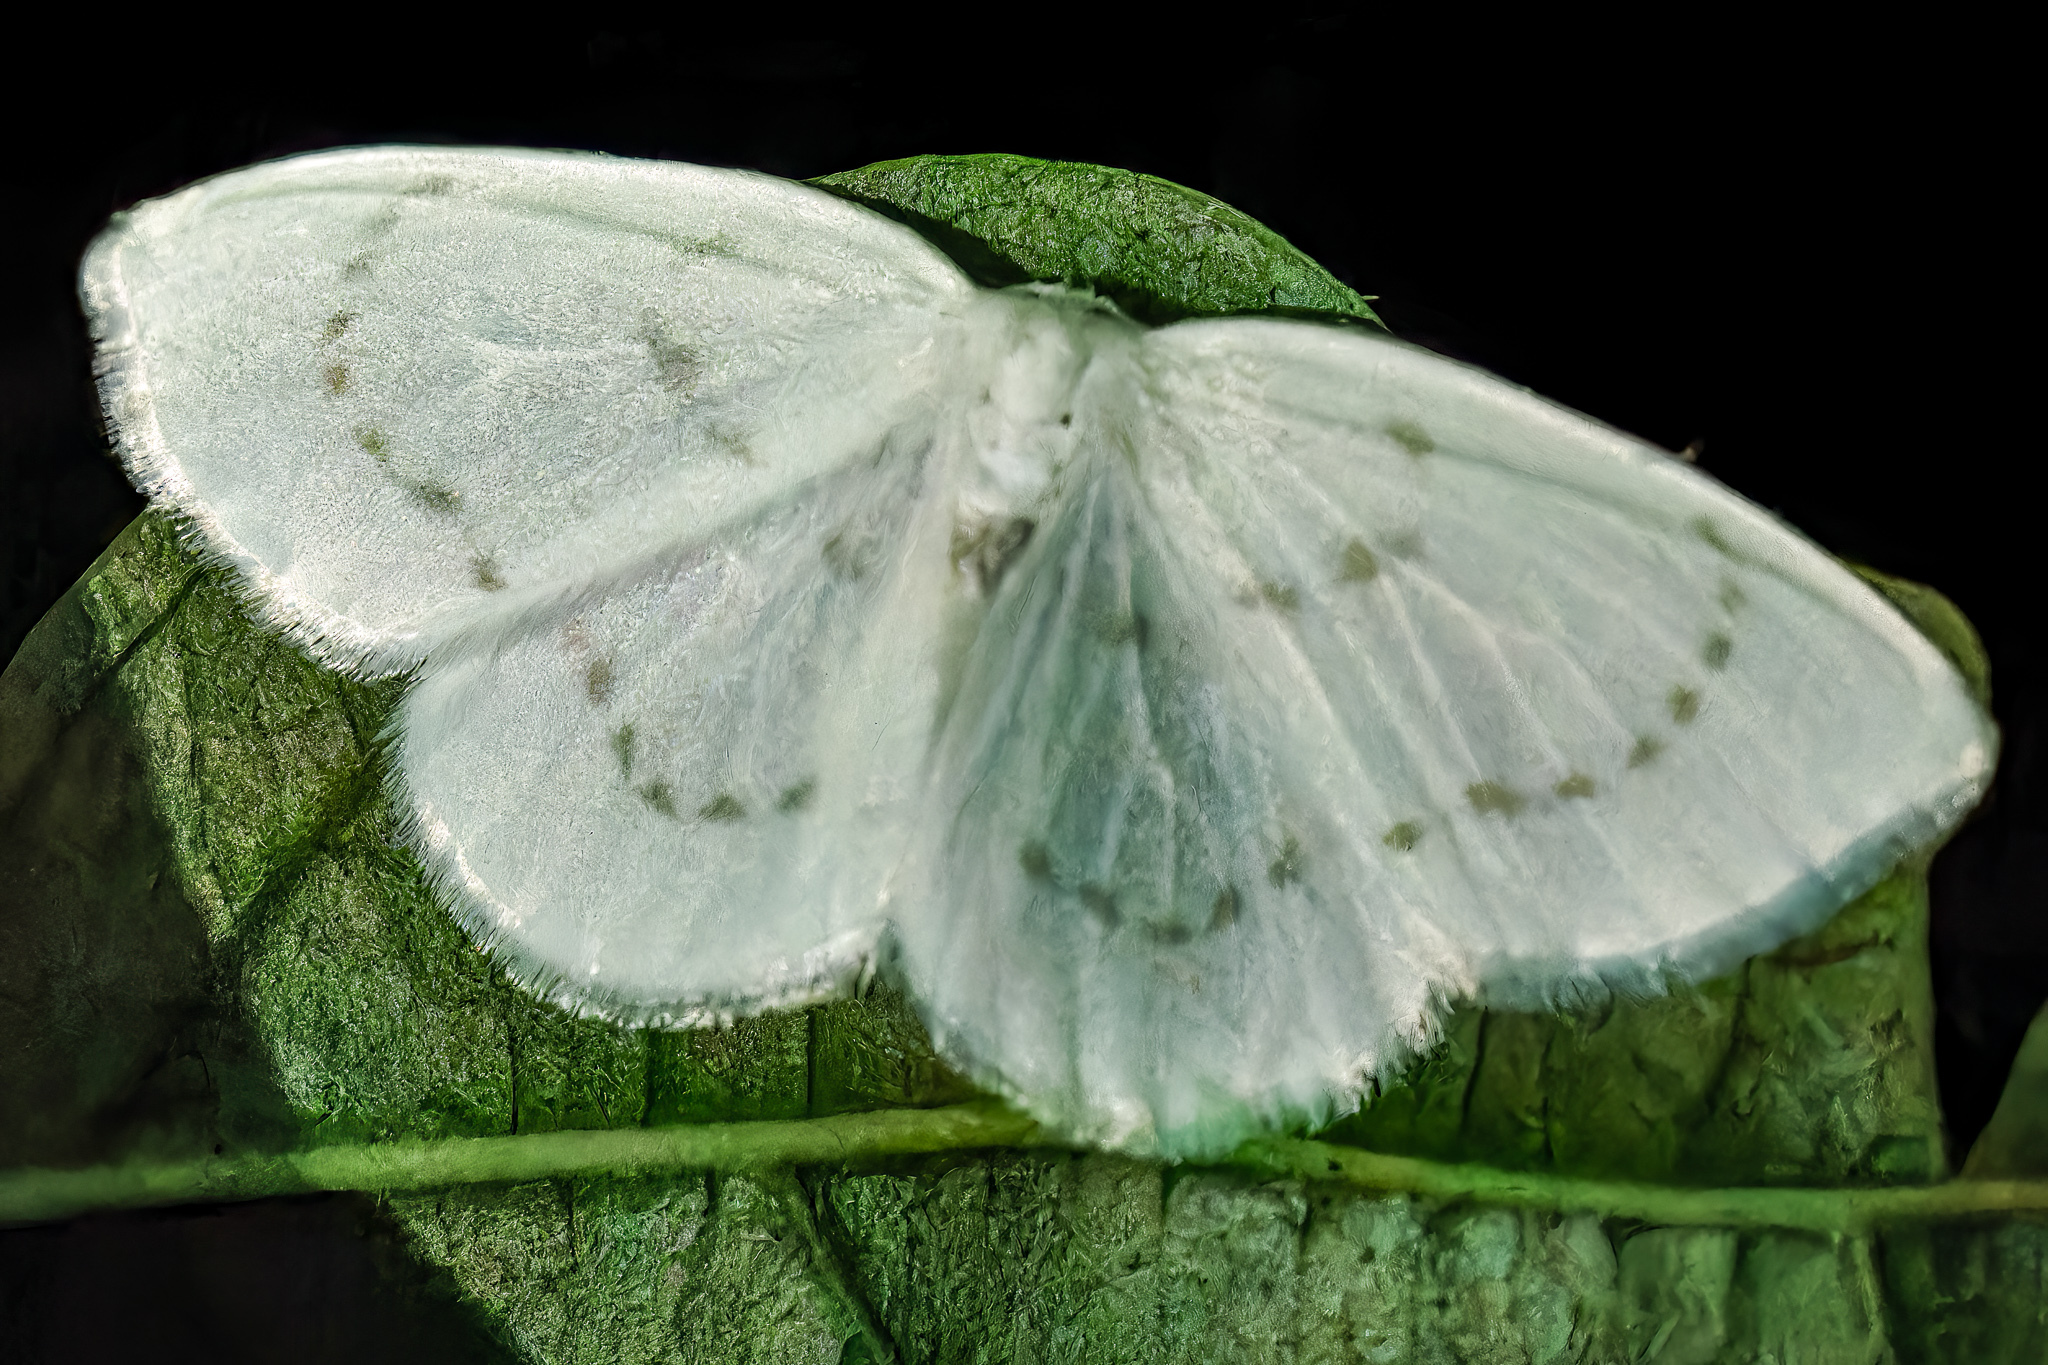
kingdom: Animalia
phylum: Arthropoda
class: Insecta
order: Lepidoptera
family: Drepanidae
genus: Eudeilinia
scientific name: Eudeilinia herminiata
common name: Northern eudeilinea moth
